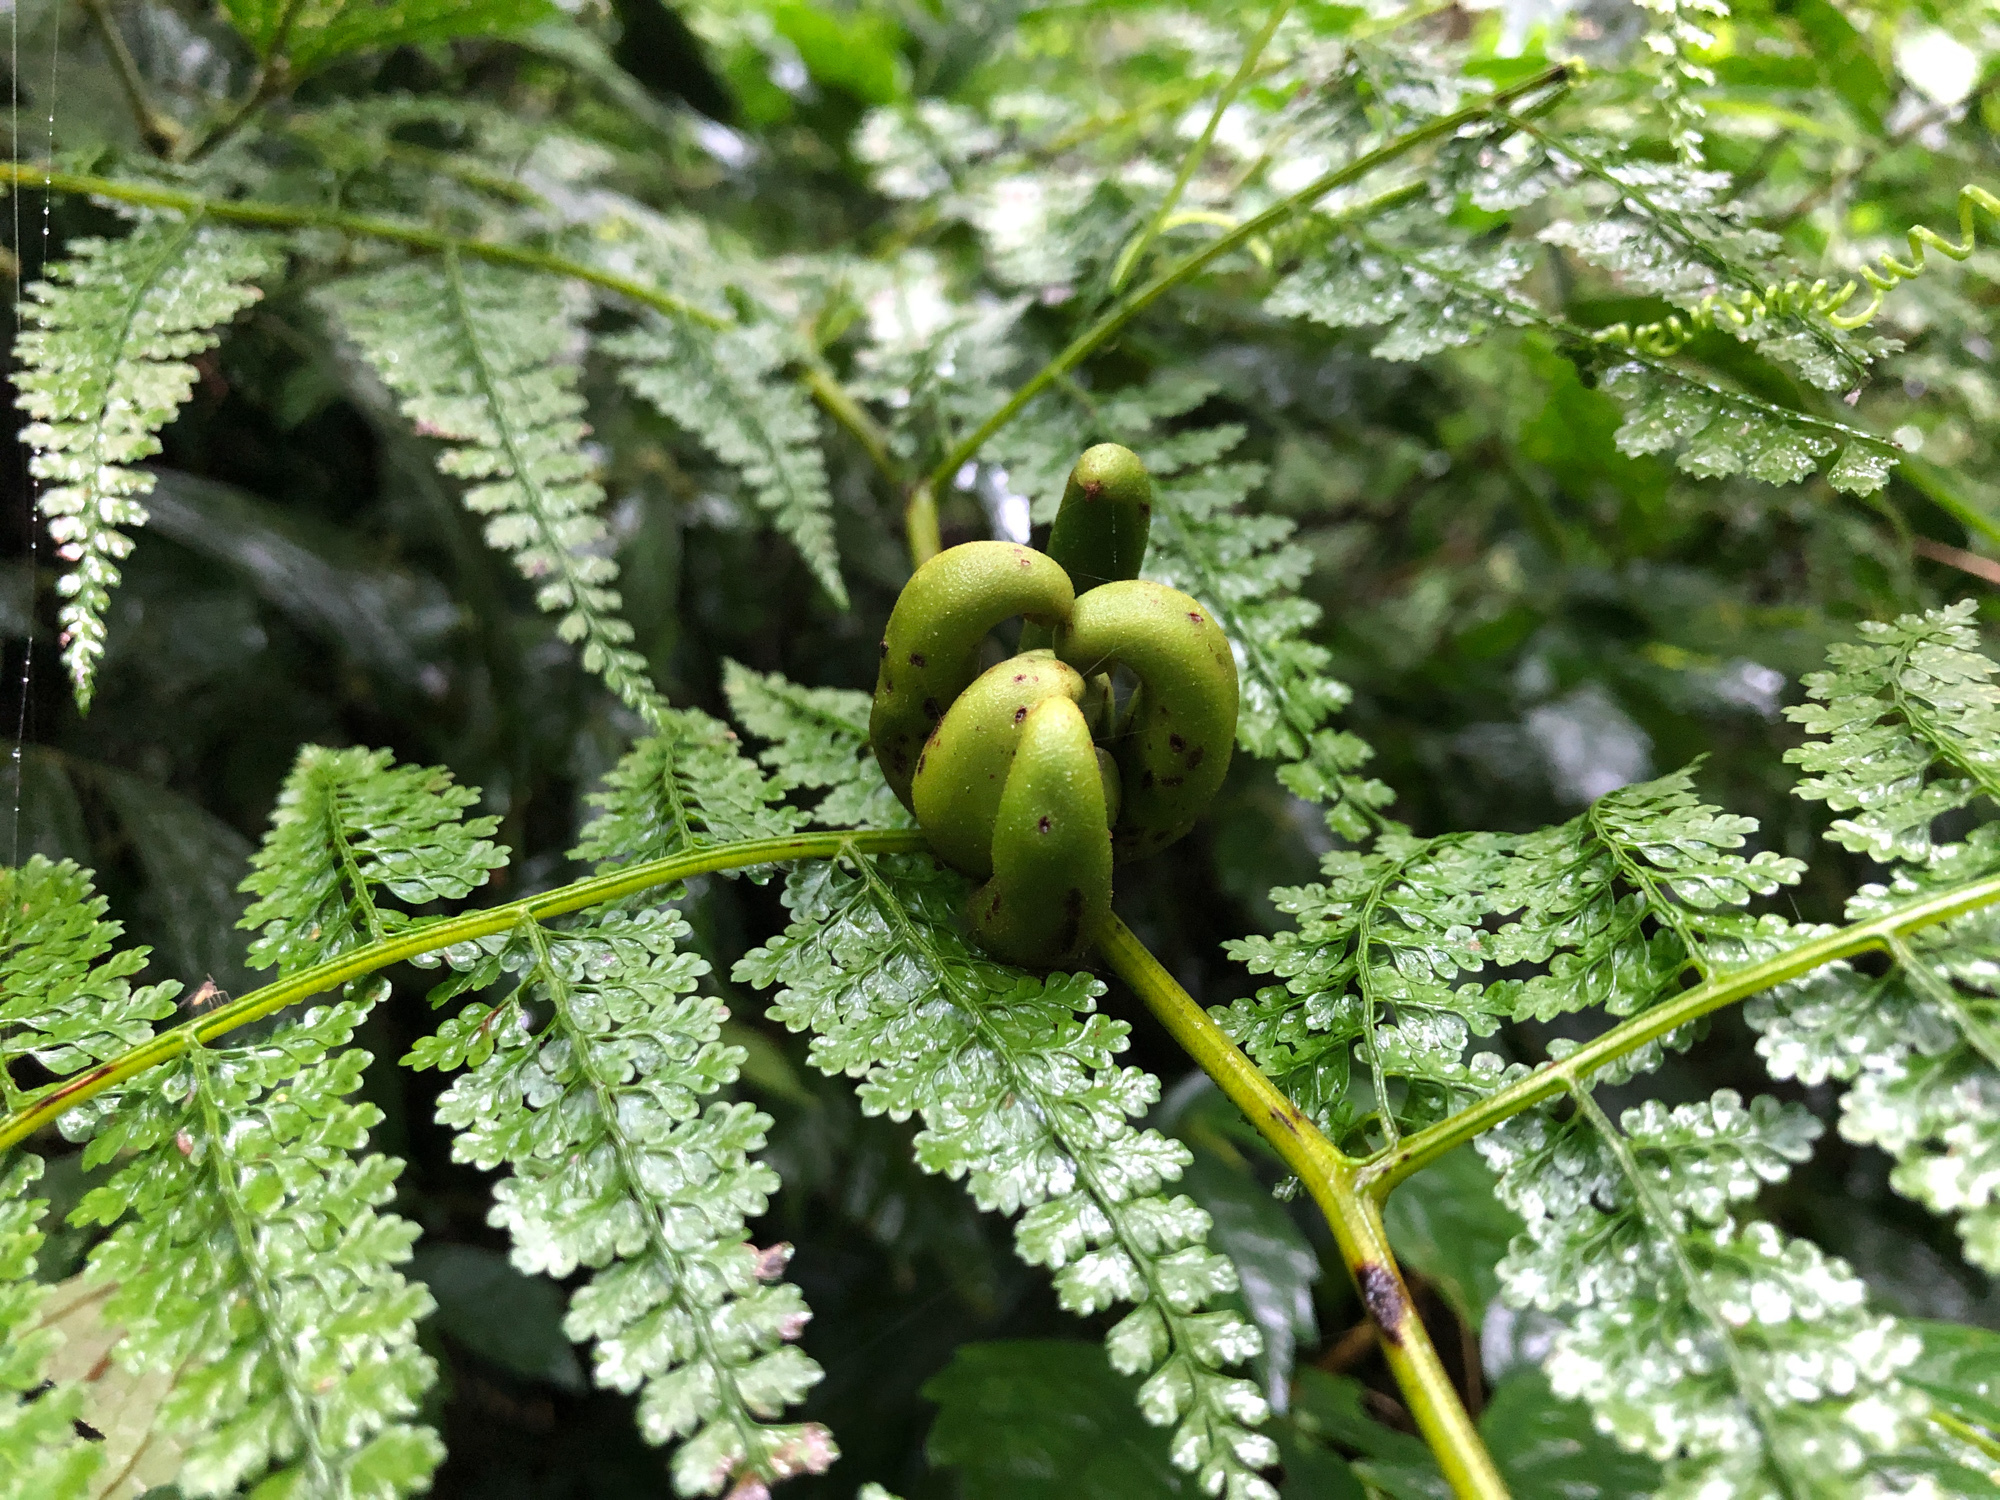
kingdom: Plantae
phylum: Tracheophyta
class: Polypodiopsida
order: Polypodiales
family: Dennstaedtiaceae
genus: Monachosorum
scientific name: Monachosorum henryi
